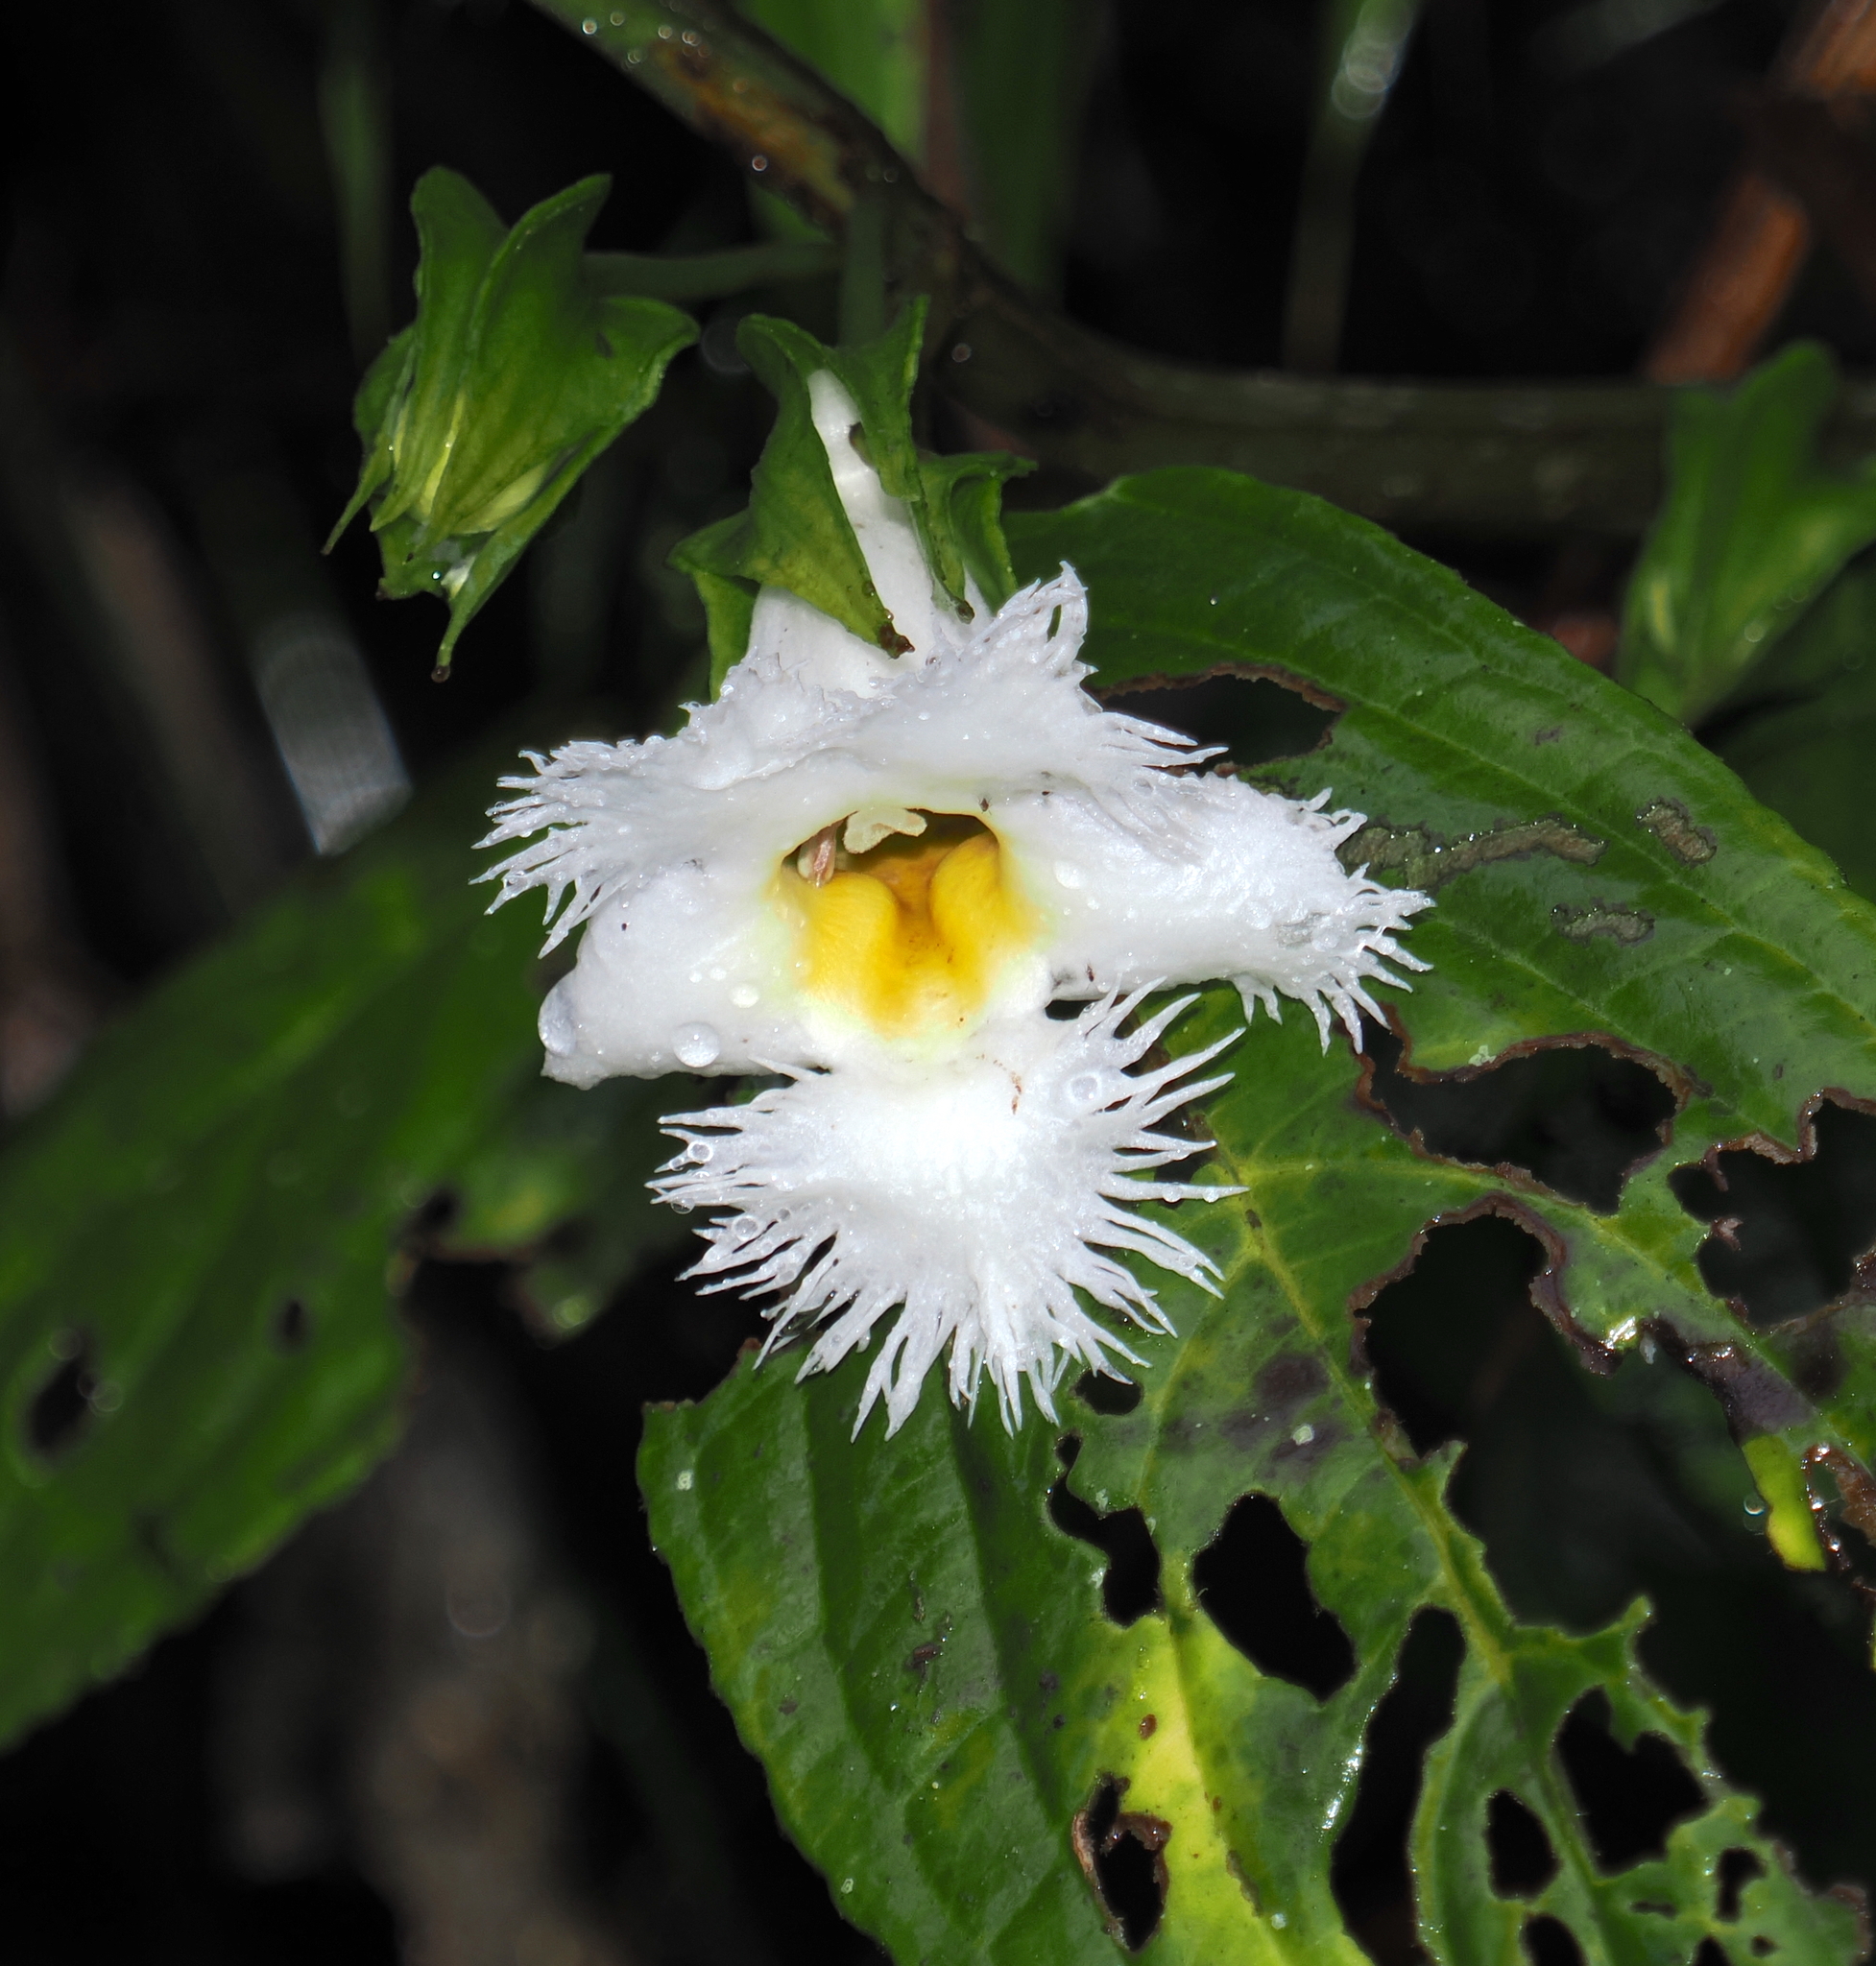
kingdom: Plantae
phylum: Tracheophyta
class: Magnoliopsida
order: Lamiales
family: Gesneriaceae
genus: Drymonia
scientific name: Drymonia lanceolata
